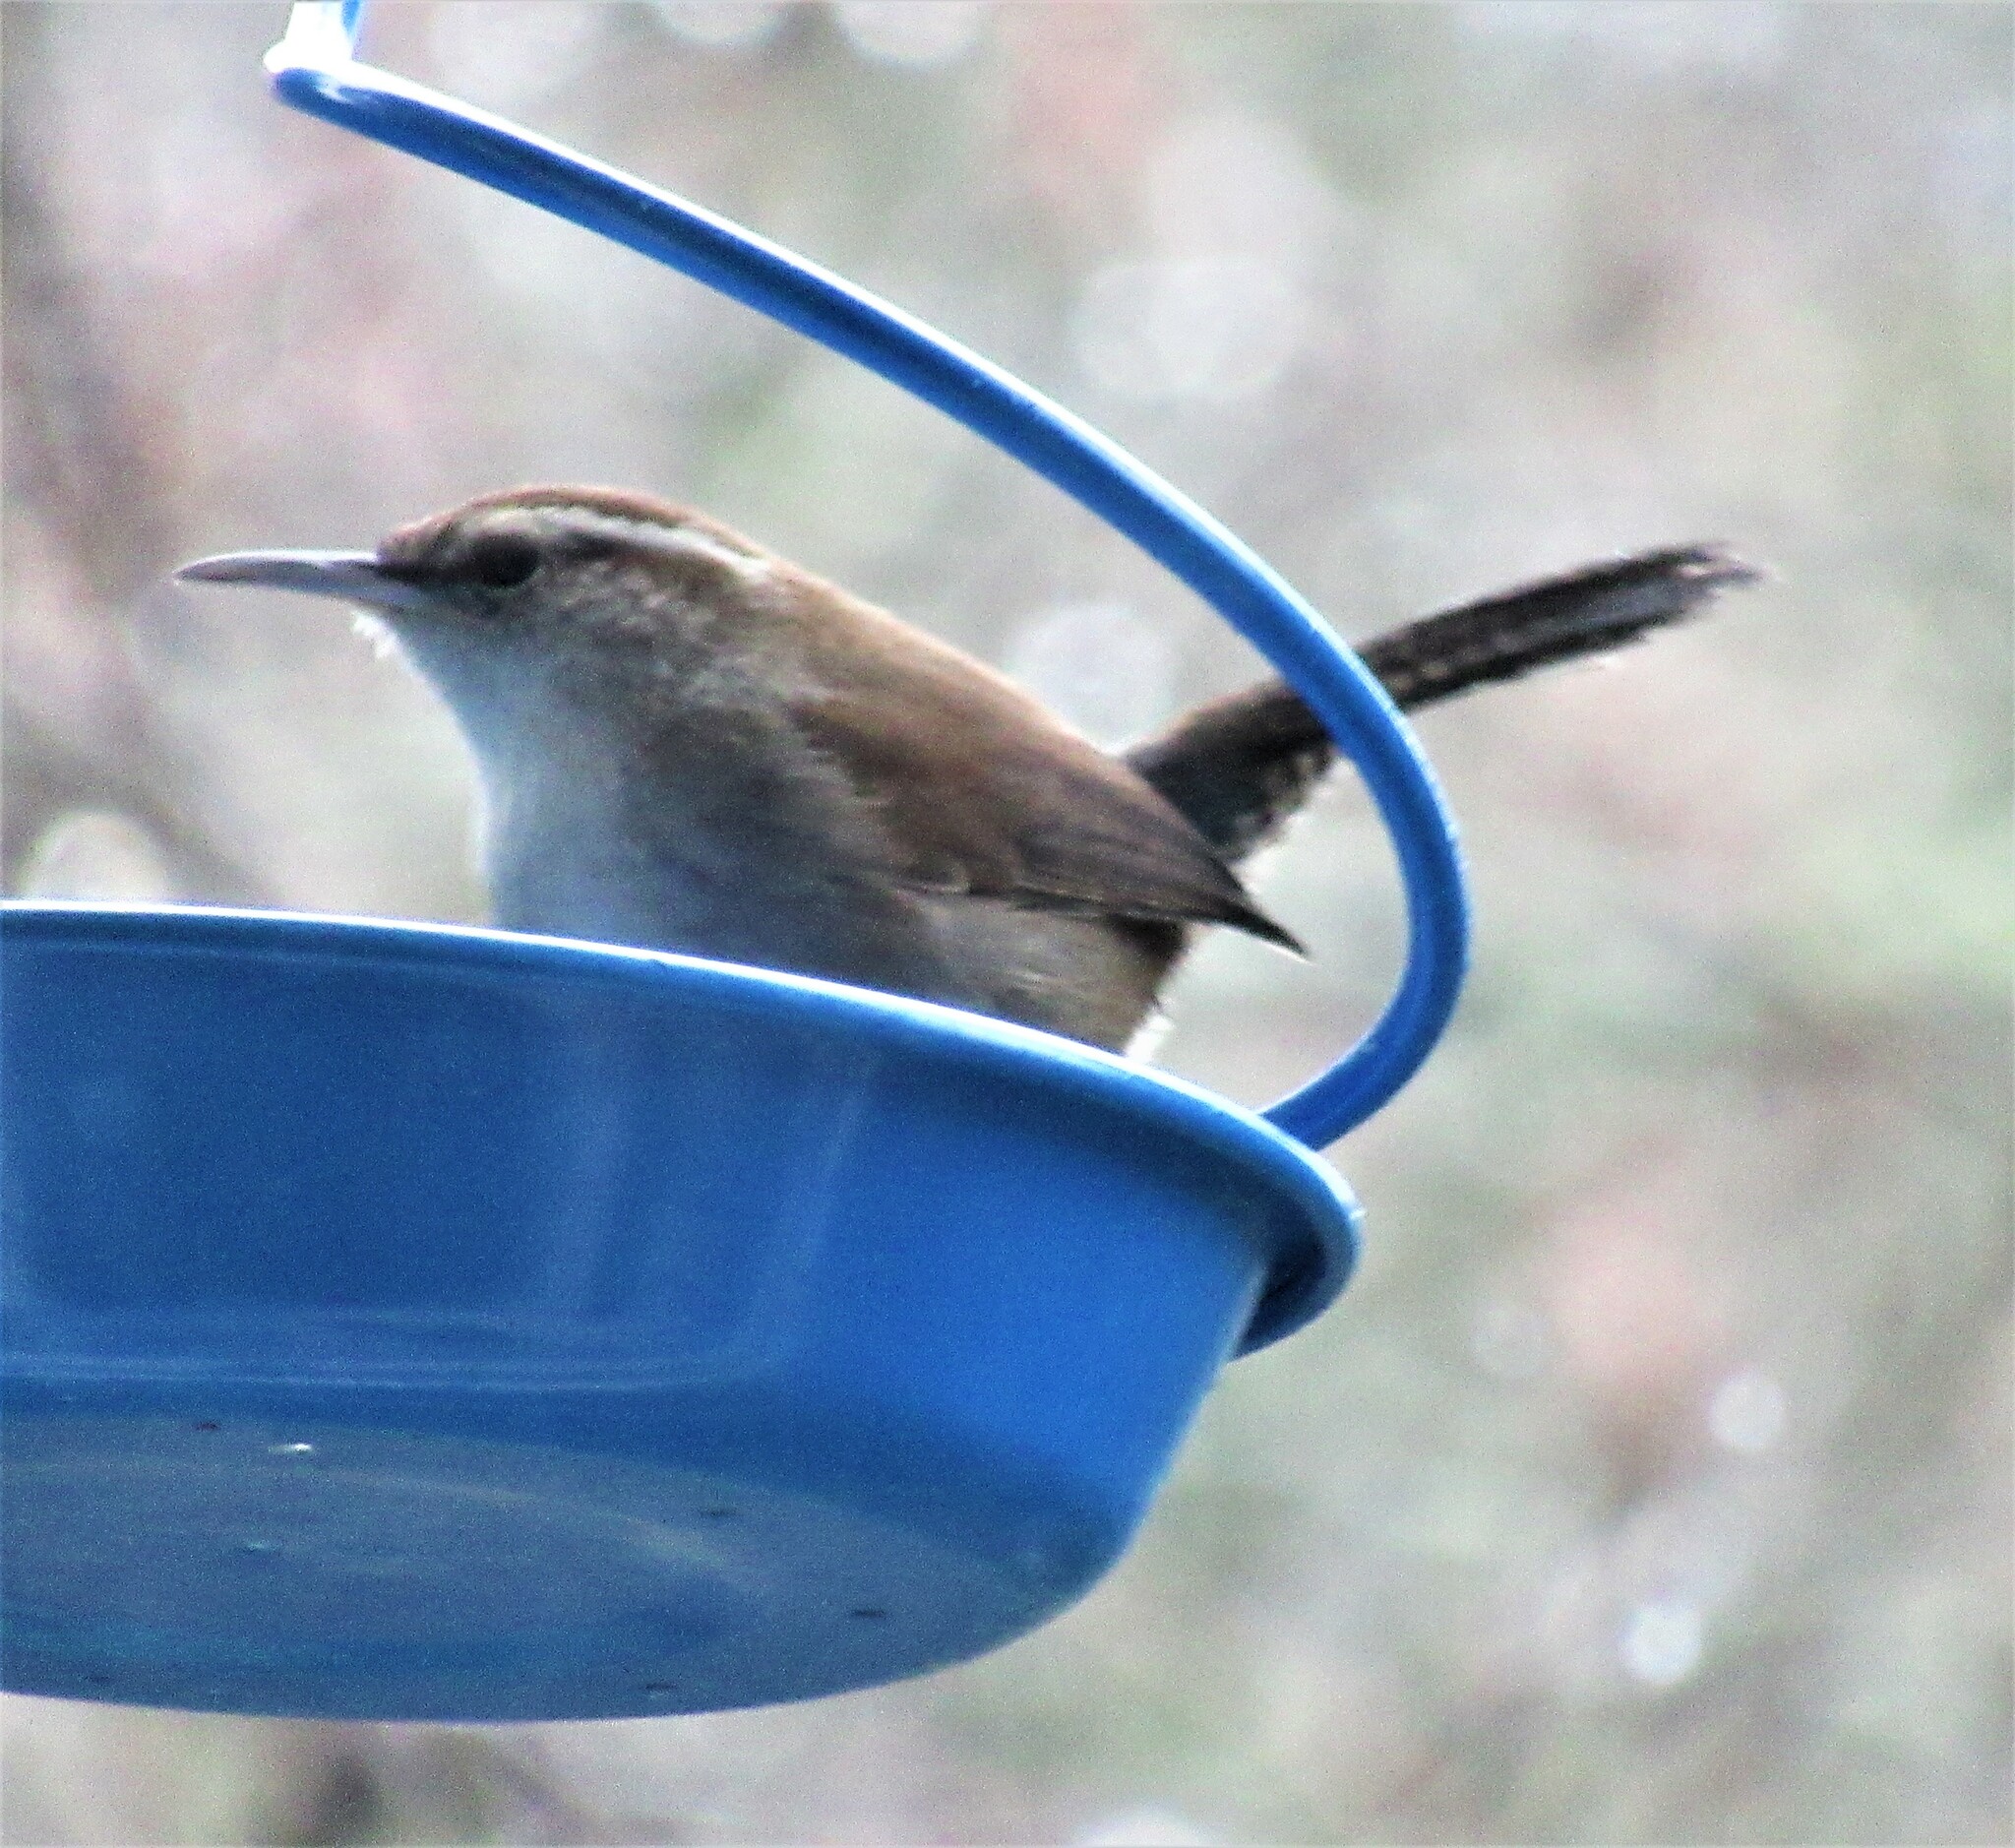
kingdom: Animalia
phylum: Chordata
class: Aves
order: Passeriformes
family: Troglodytidae
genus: Thryomanes
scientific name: Thryomanes bewickii
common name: Bewick's wren
